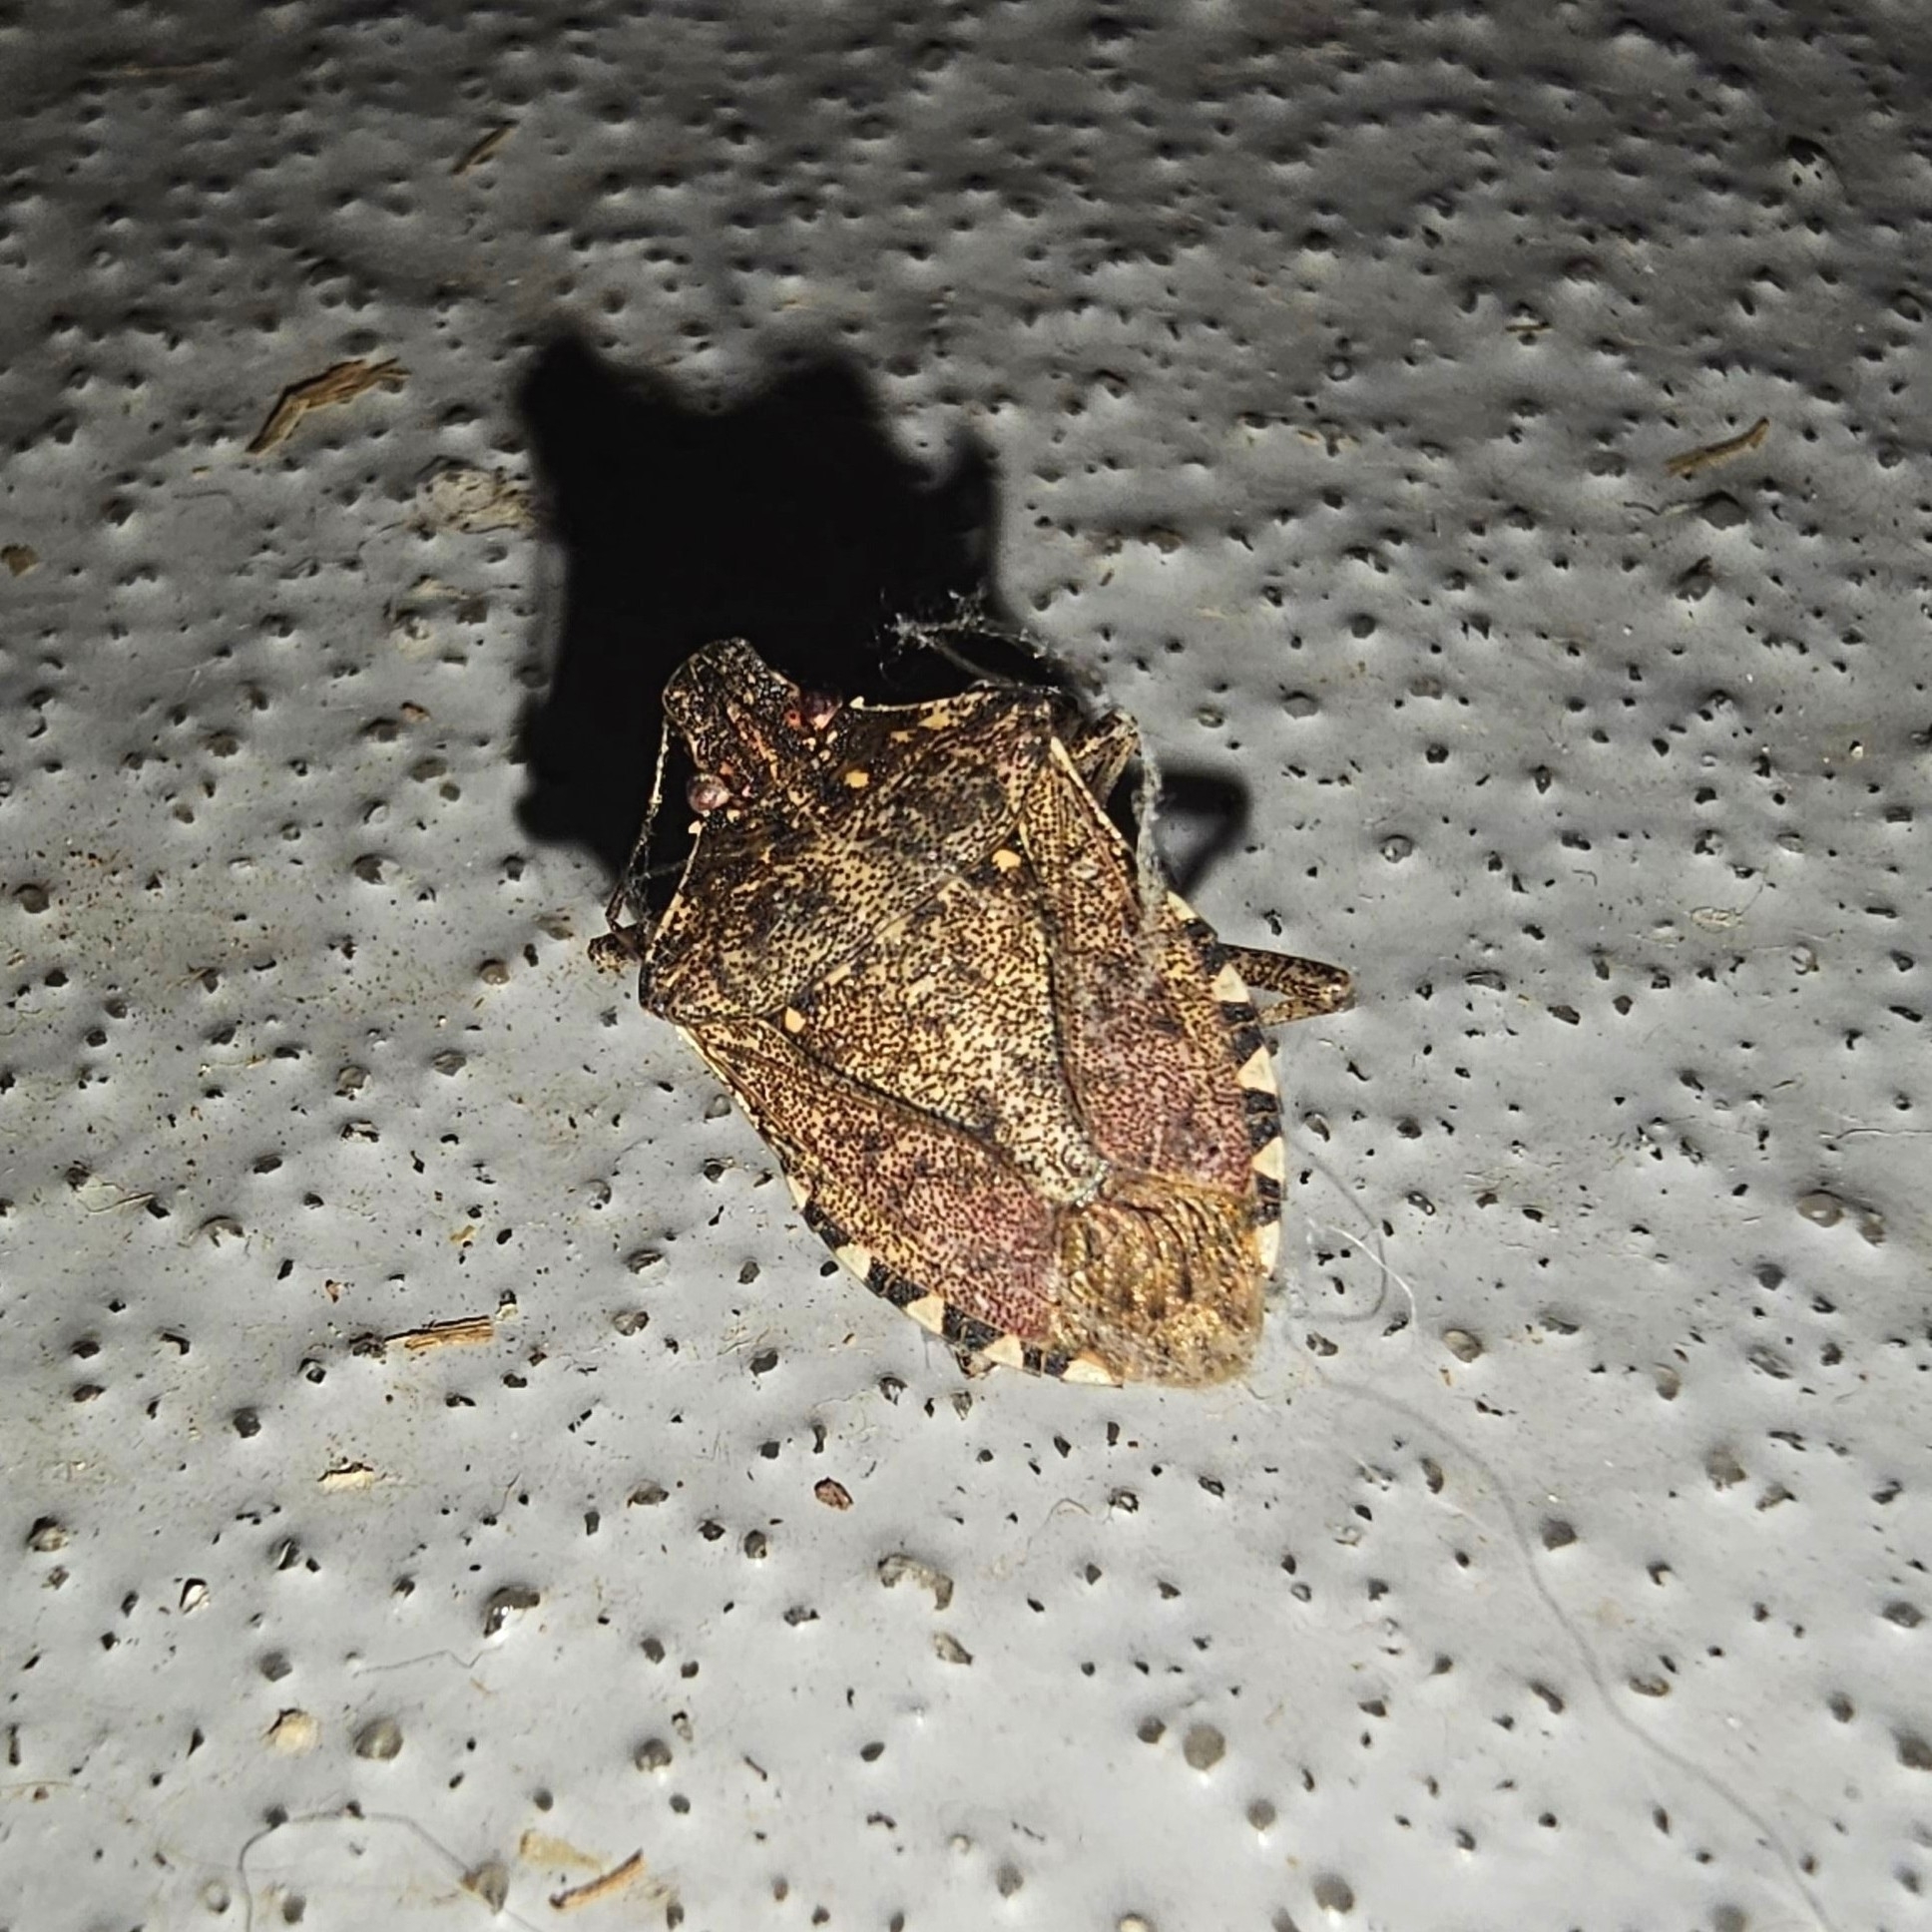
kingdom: Animalia
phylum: Arthropoda
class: Insecta
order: Hemiptera
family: Pentatomidae
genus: Halyomorpha
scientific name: Halyomorpha halys
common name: Brown marmorated stink bug
